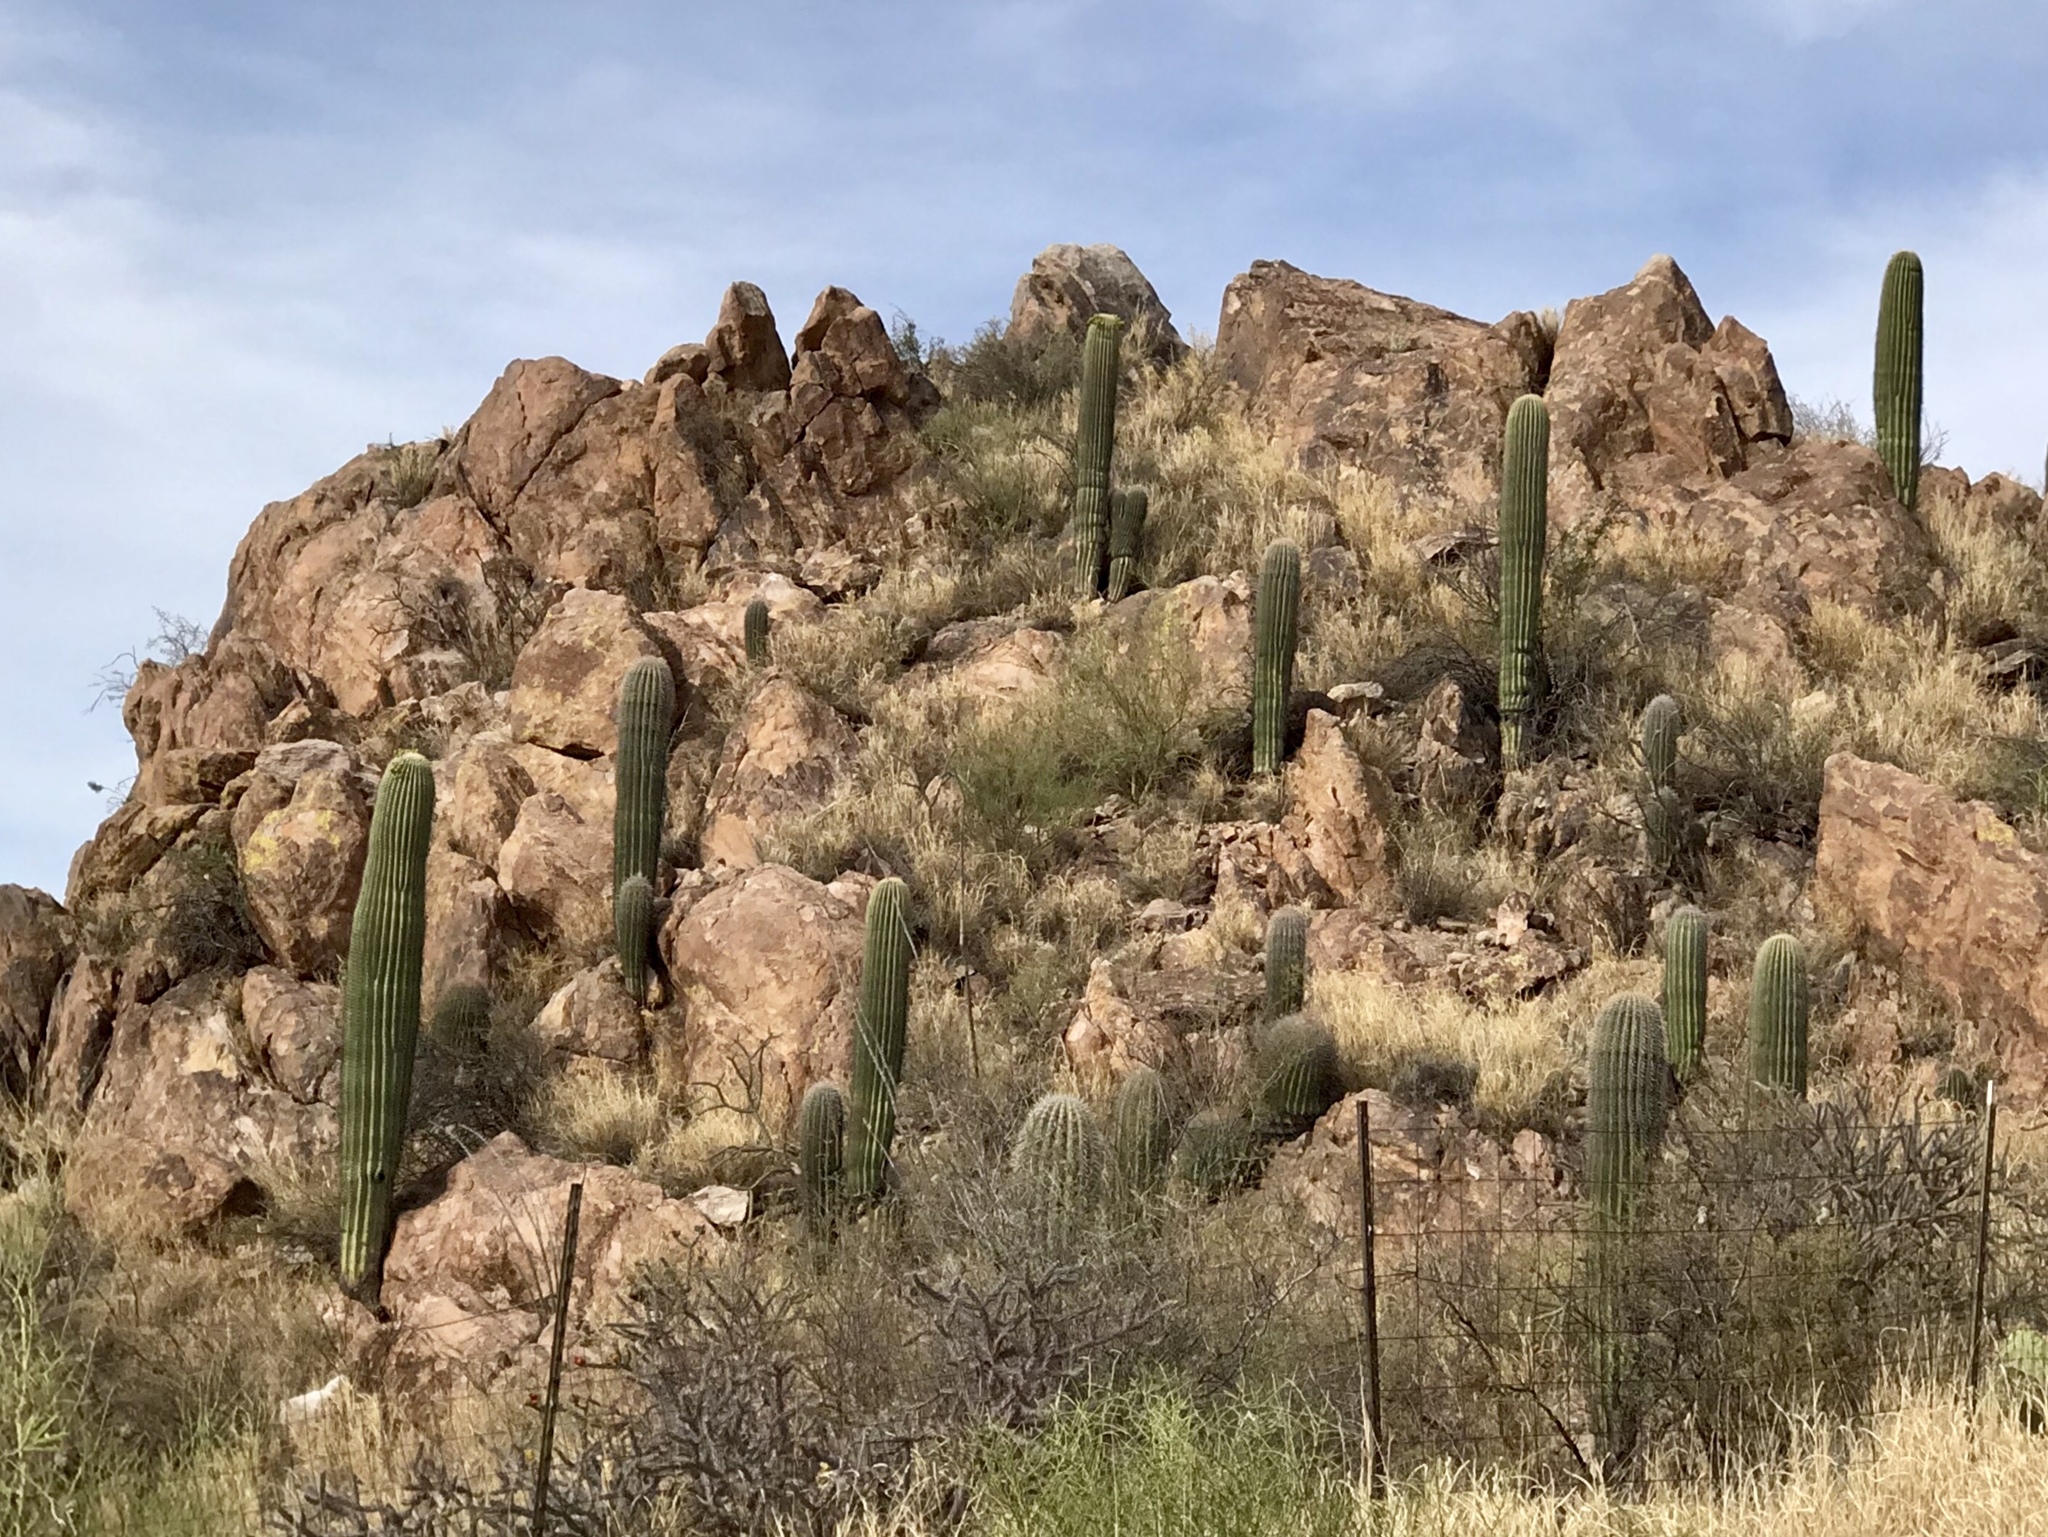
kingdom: Plantae
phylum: Tracheophyta
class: Magnoliopsida
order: Caryophyllales
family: Cactaceae
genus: Carnegiea
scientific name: Carnegiea gigantea
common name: Saguaro
